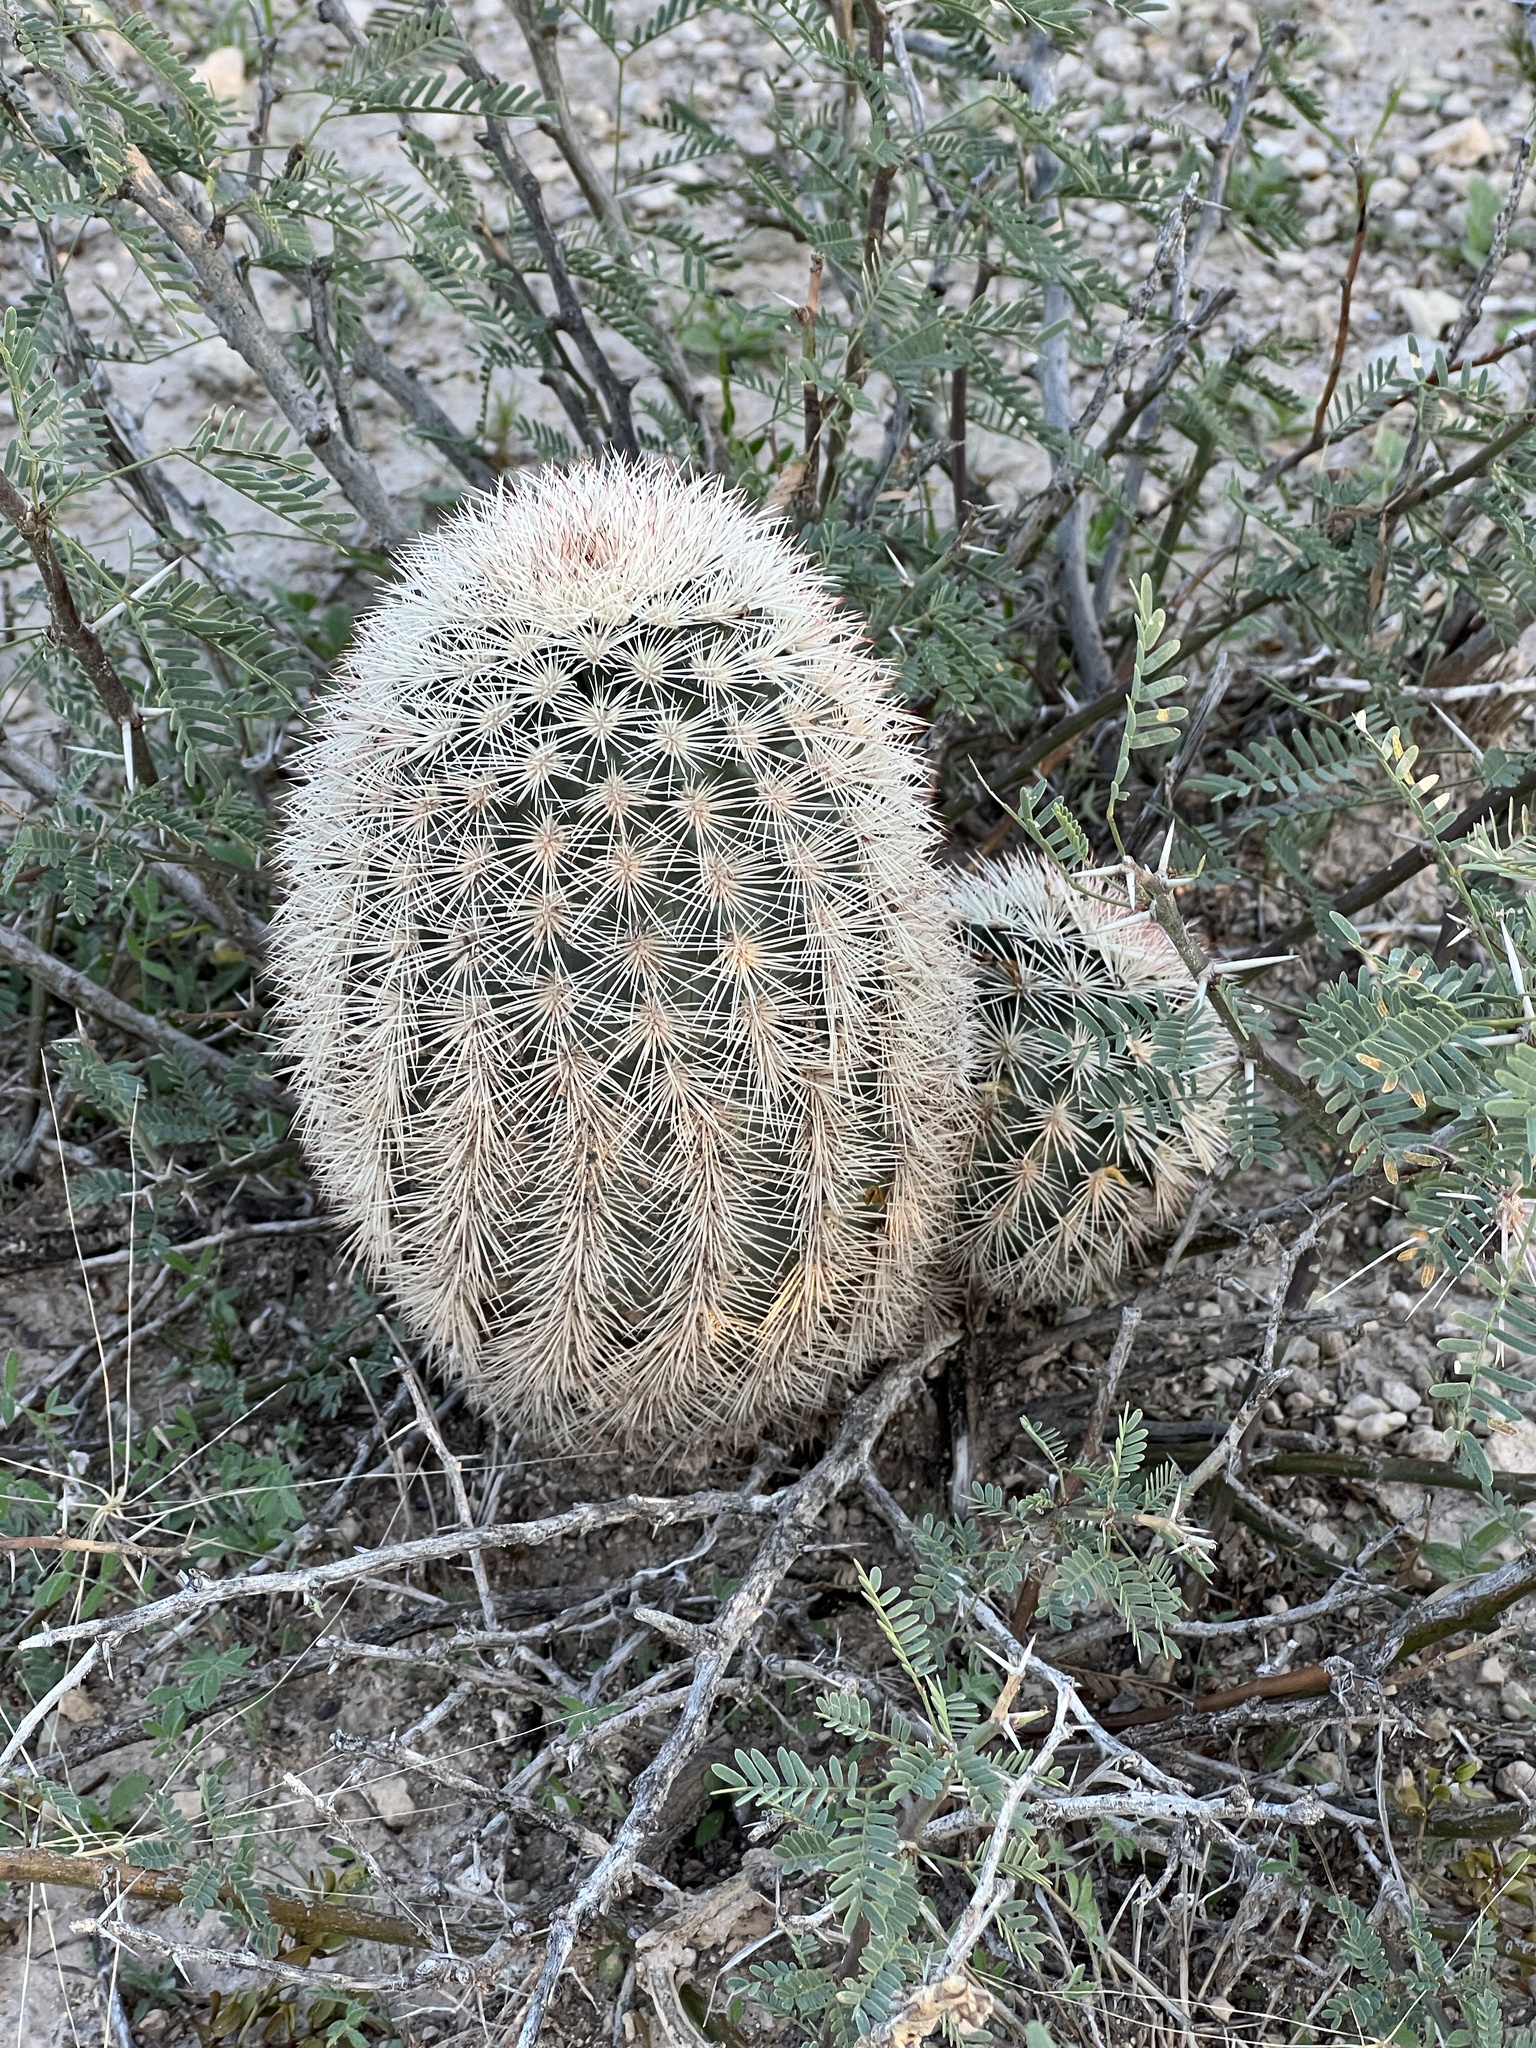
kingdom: Plantae
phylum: Tracheophyta
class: Magnoliopsida
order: Caryophyllales
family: Cactaceae
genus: Echinocereus
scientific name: Echinocereus dasyacanthus
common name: Spiny hedgehog cactus
